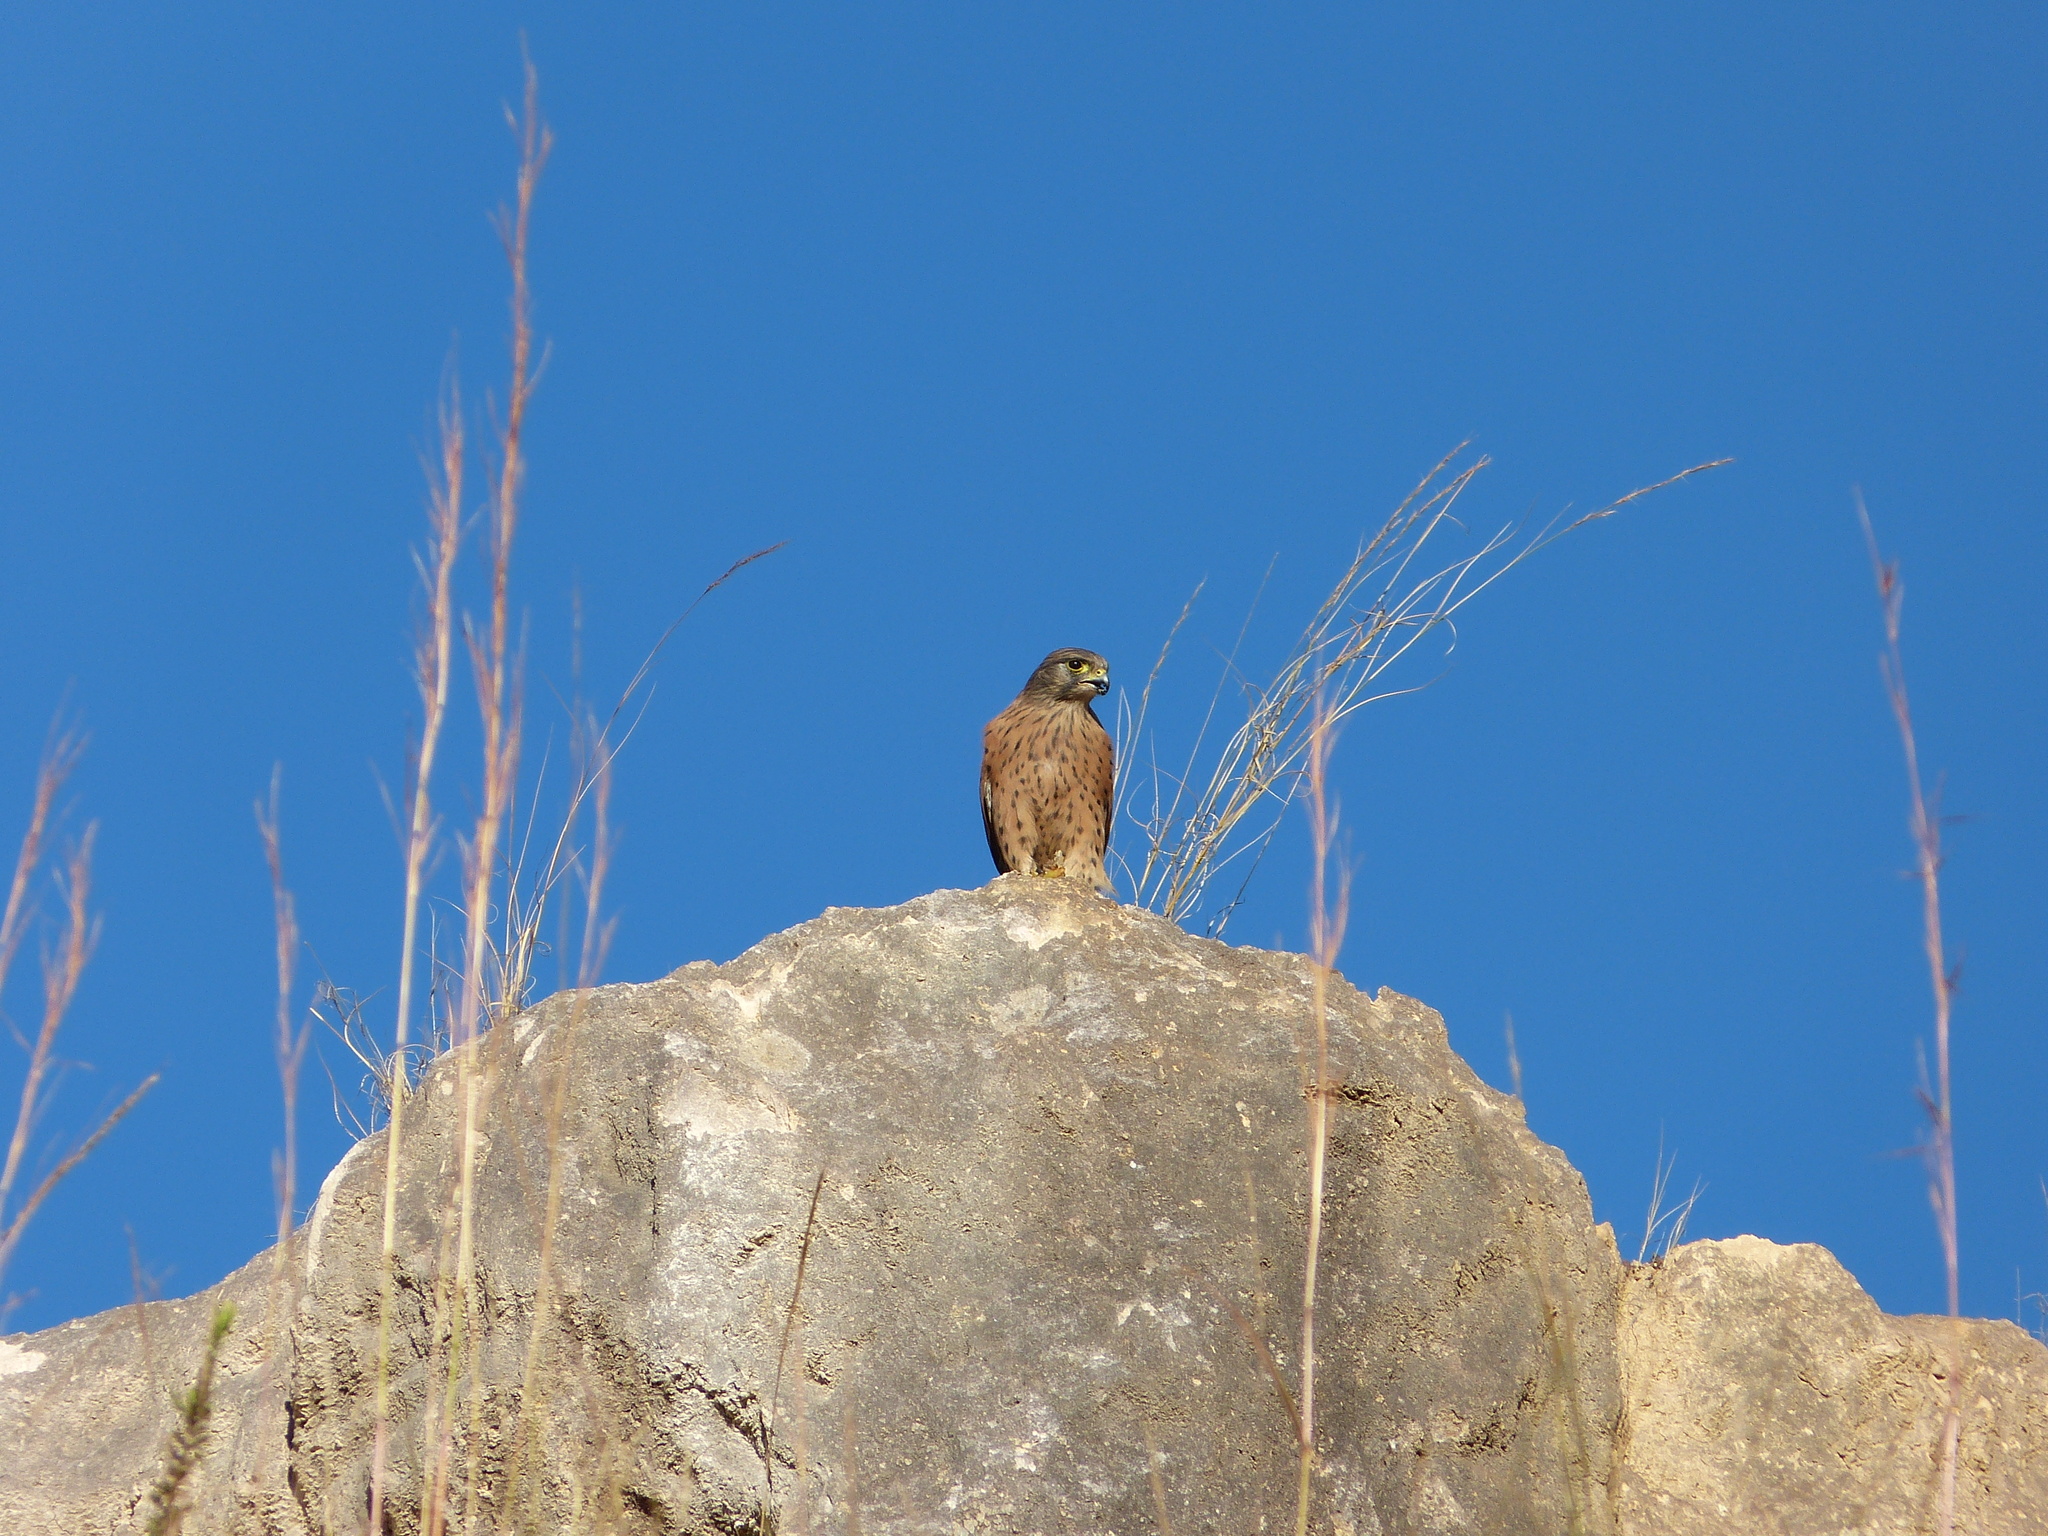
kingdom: Animalia
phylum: Chordata
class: Aves
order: Falconiformes
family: Falconidae
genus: Falco
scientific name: Falco newtoni
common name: Malagasy kestrel
